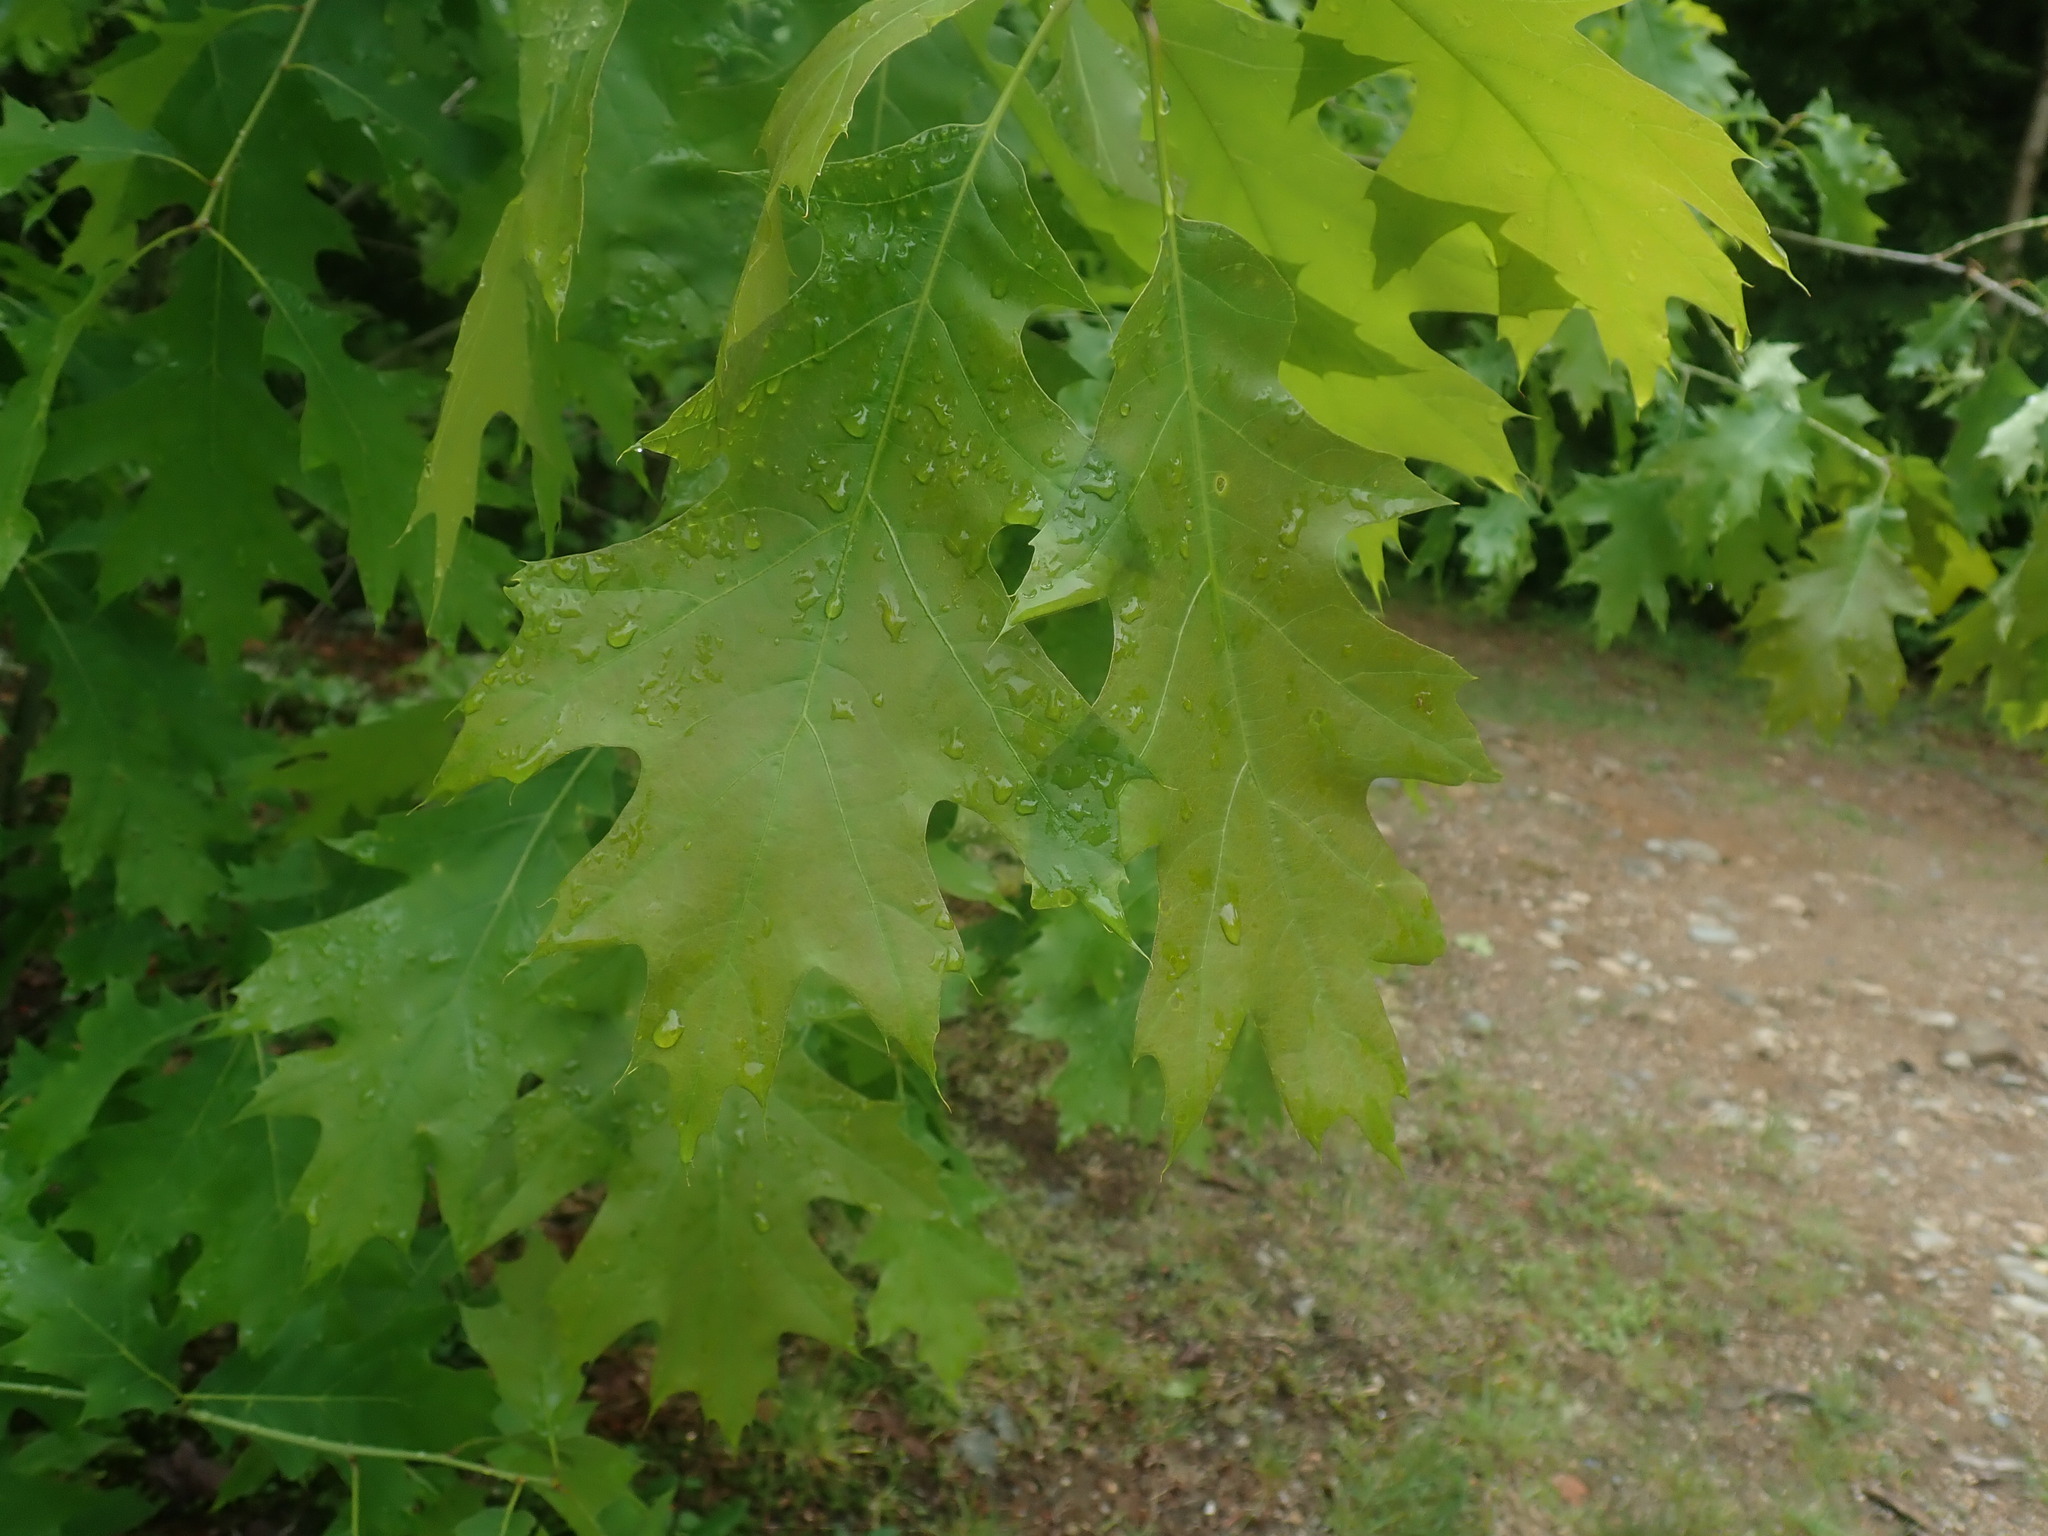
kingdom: Plantae
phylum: Tracheophyta
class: Magnoliopsida
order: Fagales
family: Fagaceae
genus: Quercus
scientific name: Quercus rubra
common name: Red oak
